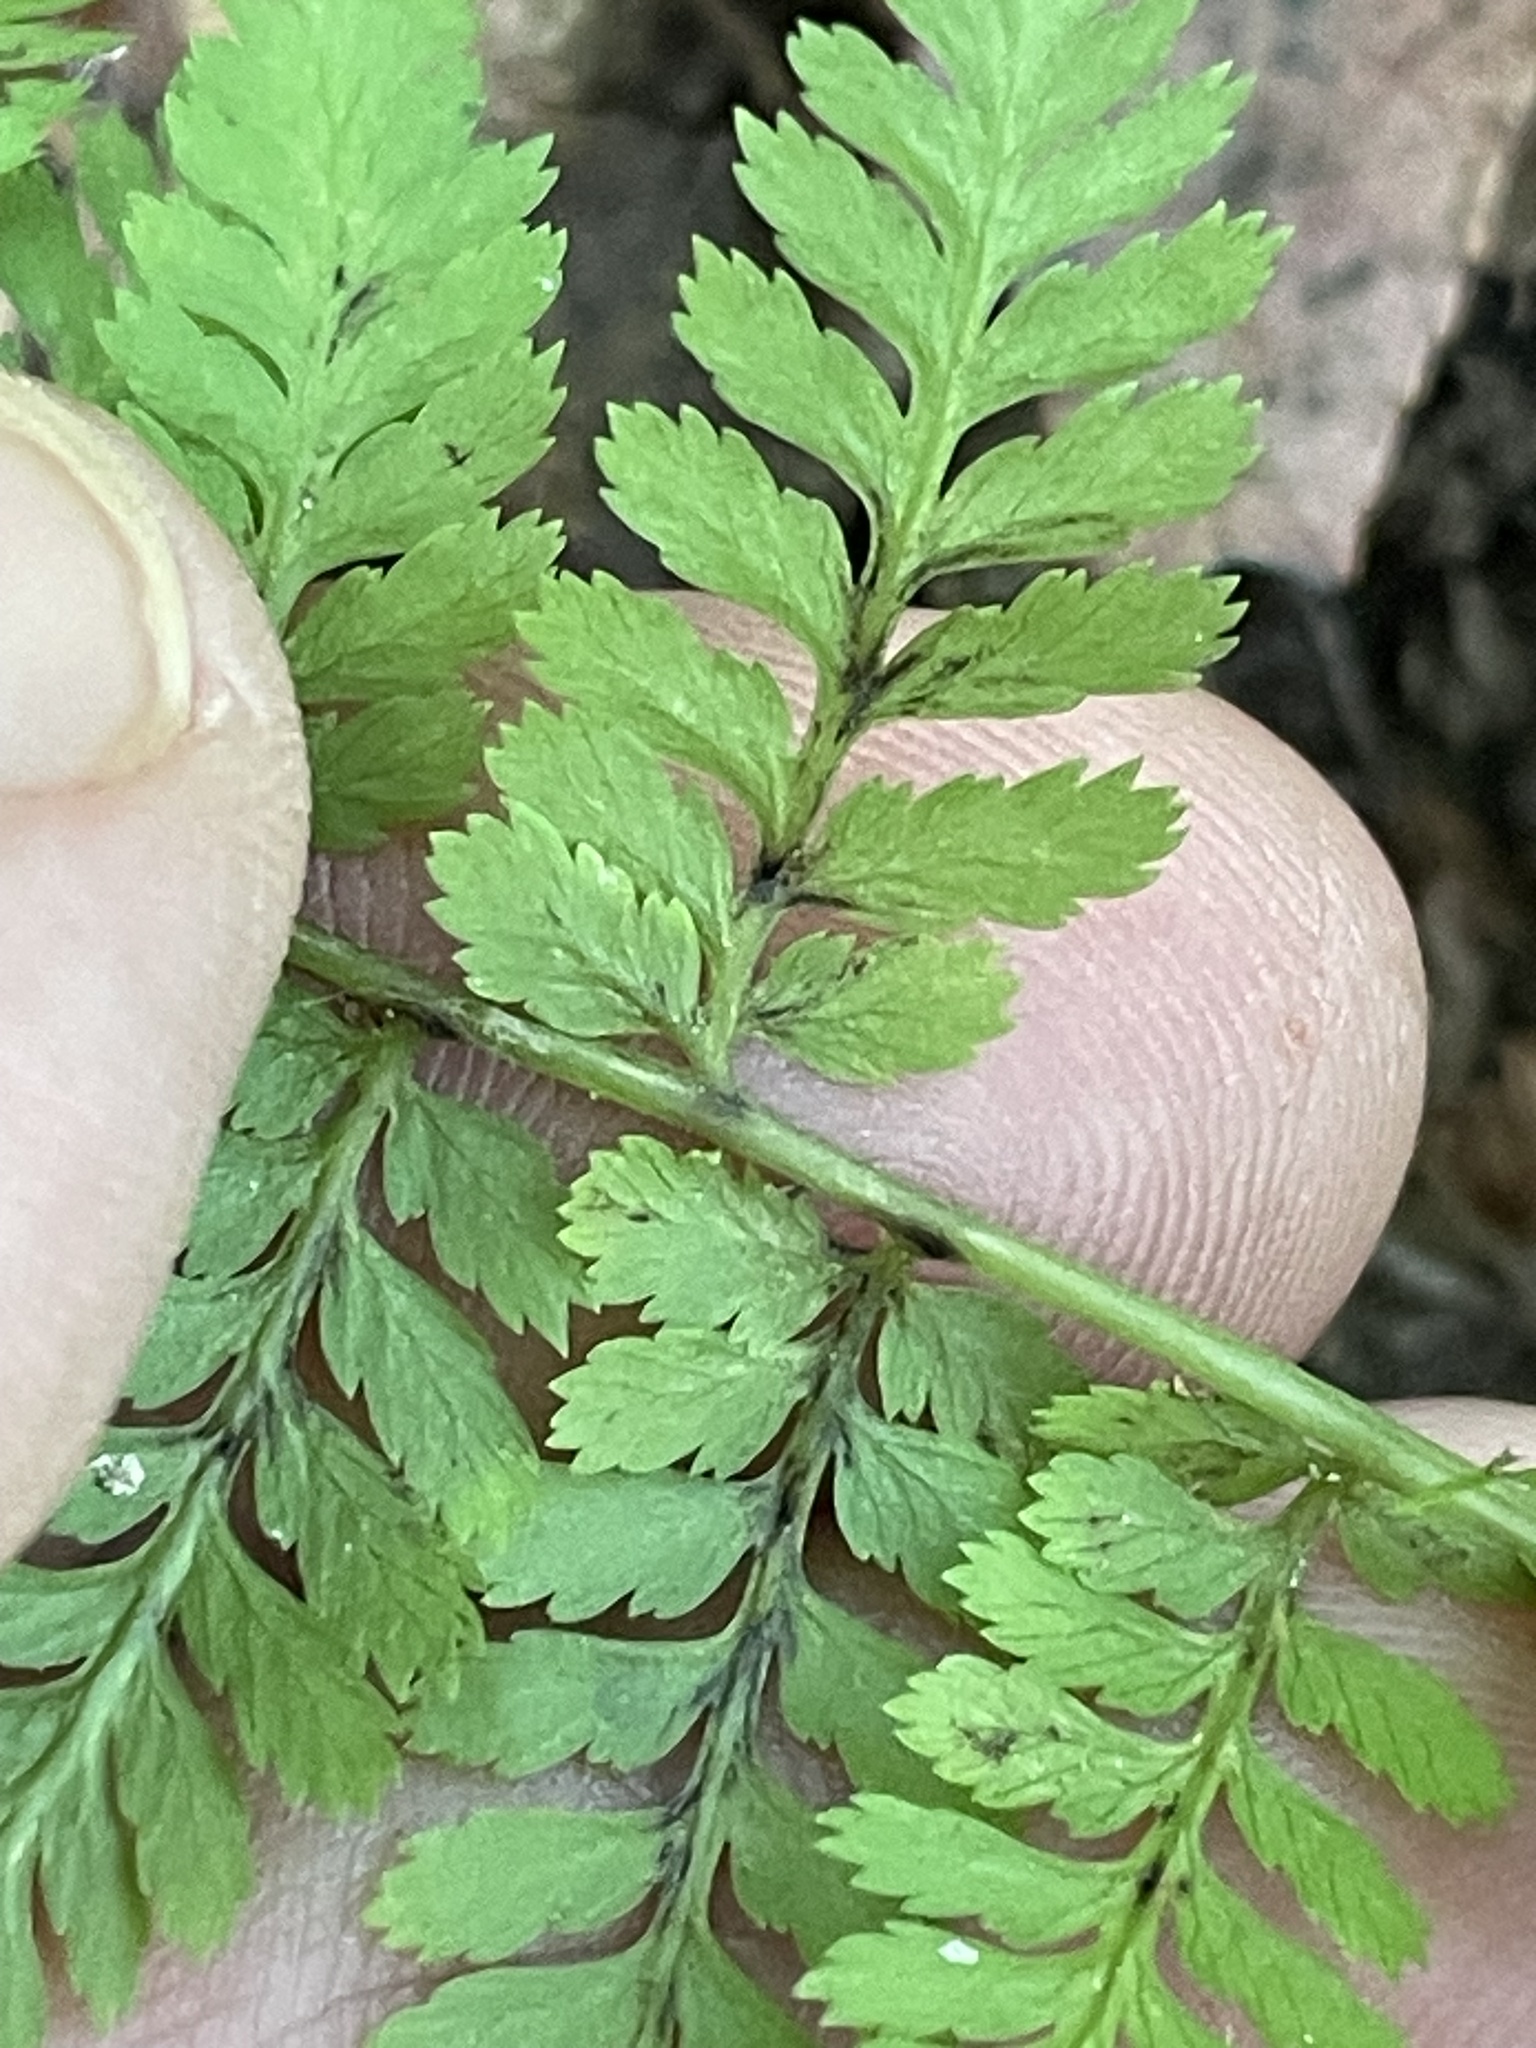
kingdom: Plantae
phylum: Tracheophyta
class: Polypodiopsida
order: Polypodiales
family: Athyriaceae
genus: Athyrium
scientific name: Athyrium asplenioides
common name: Southern lady fern
